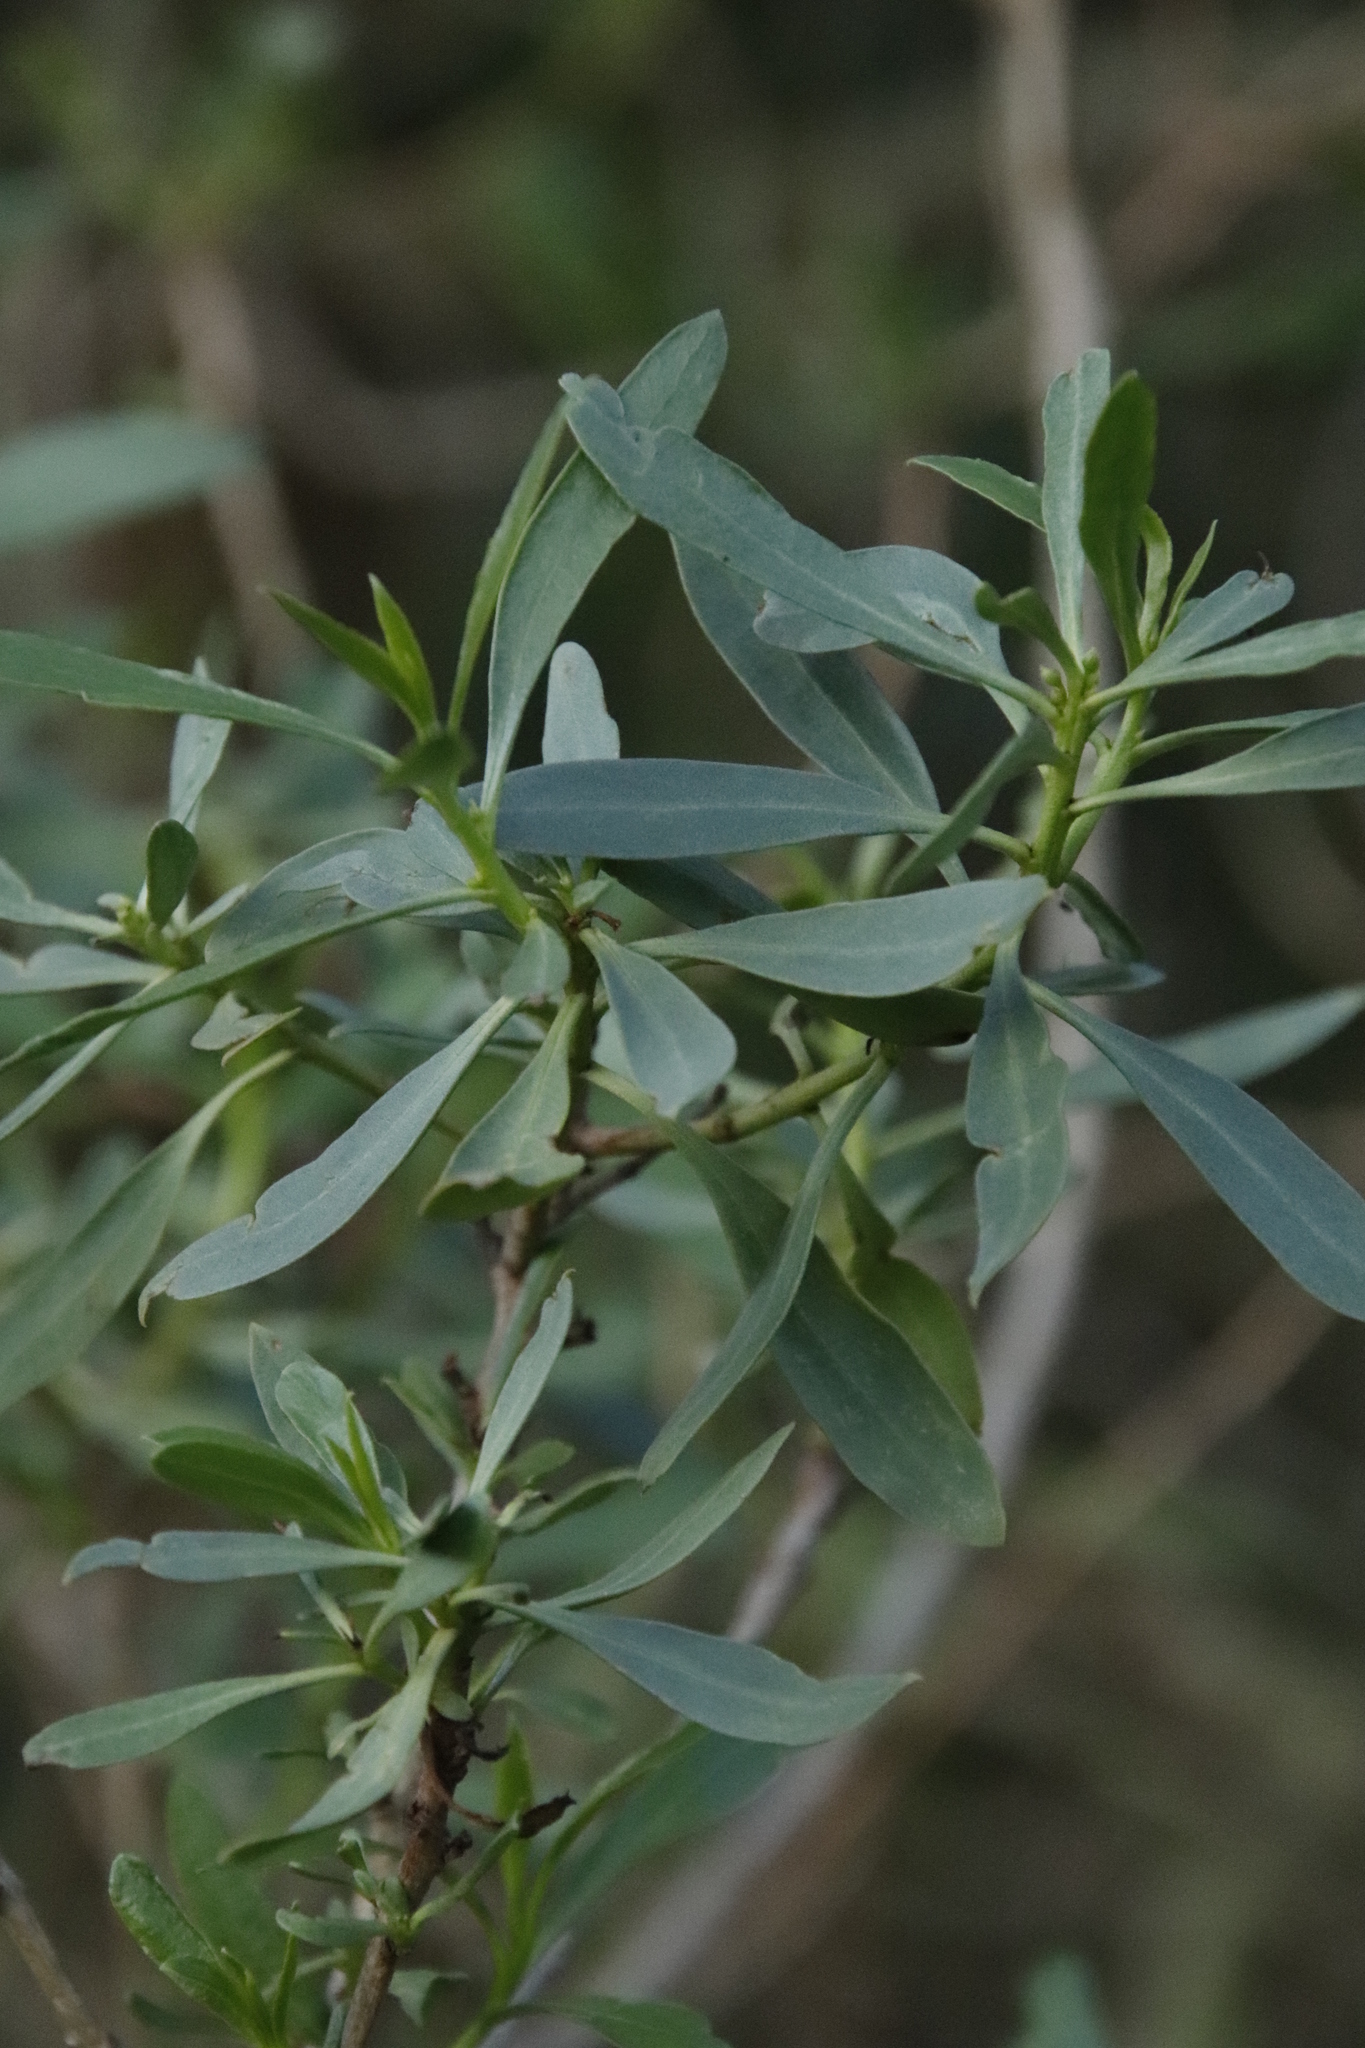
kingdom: Plantae
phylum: Tracheophyta
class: Magnoliopsida
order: Lamiales
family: Scrophulariaceae
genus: Myoporum
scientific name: Myoporum montanum
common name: Waterbush
